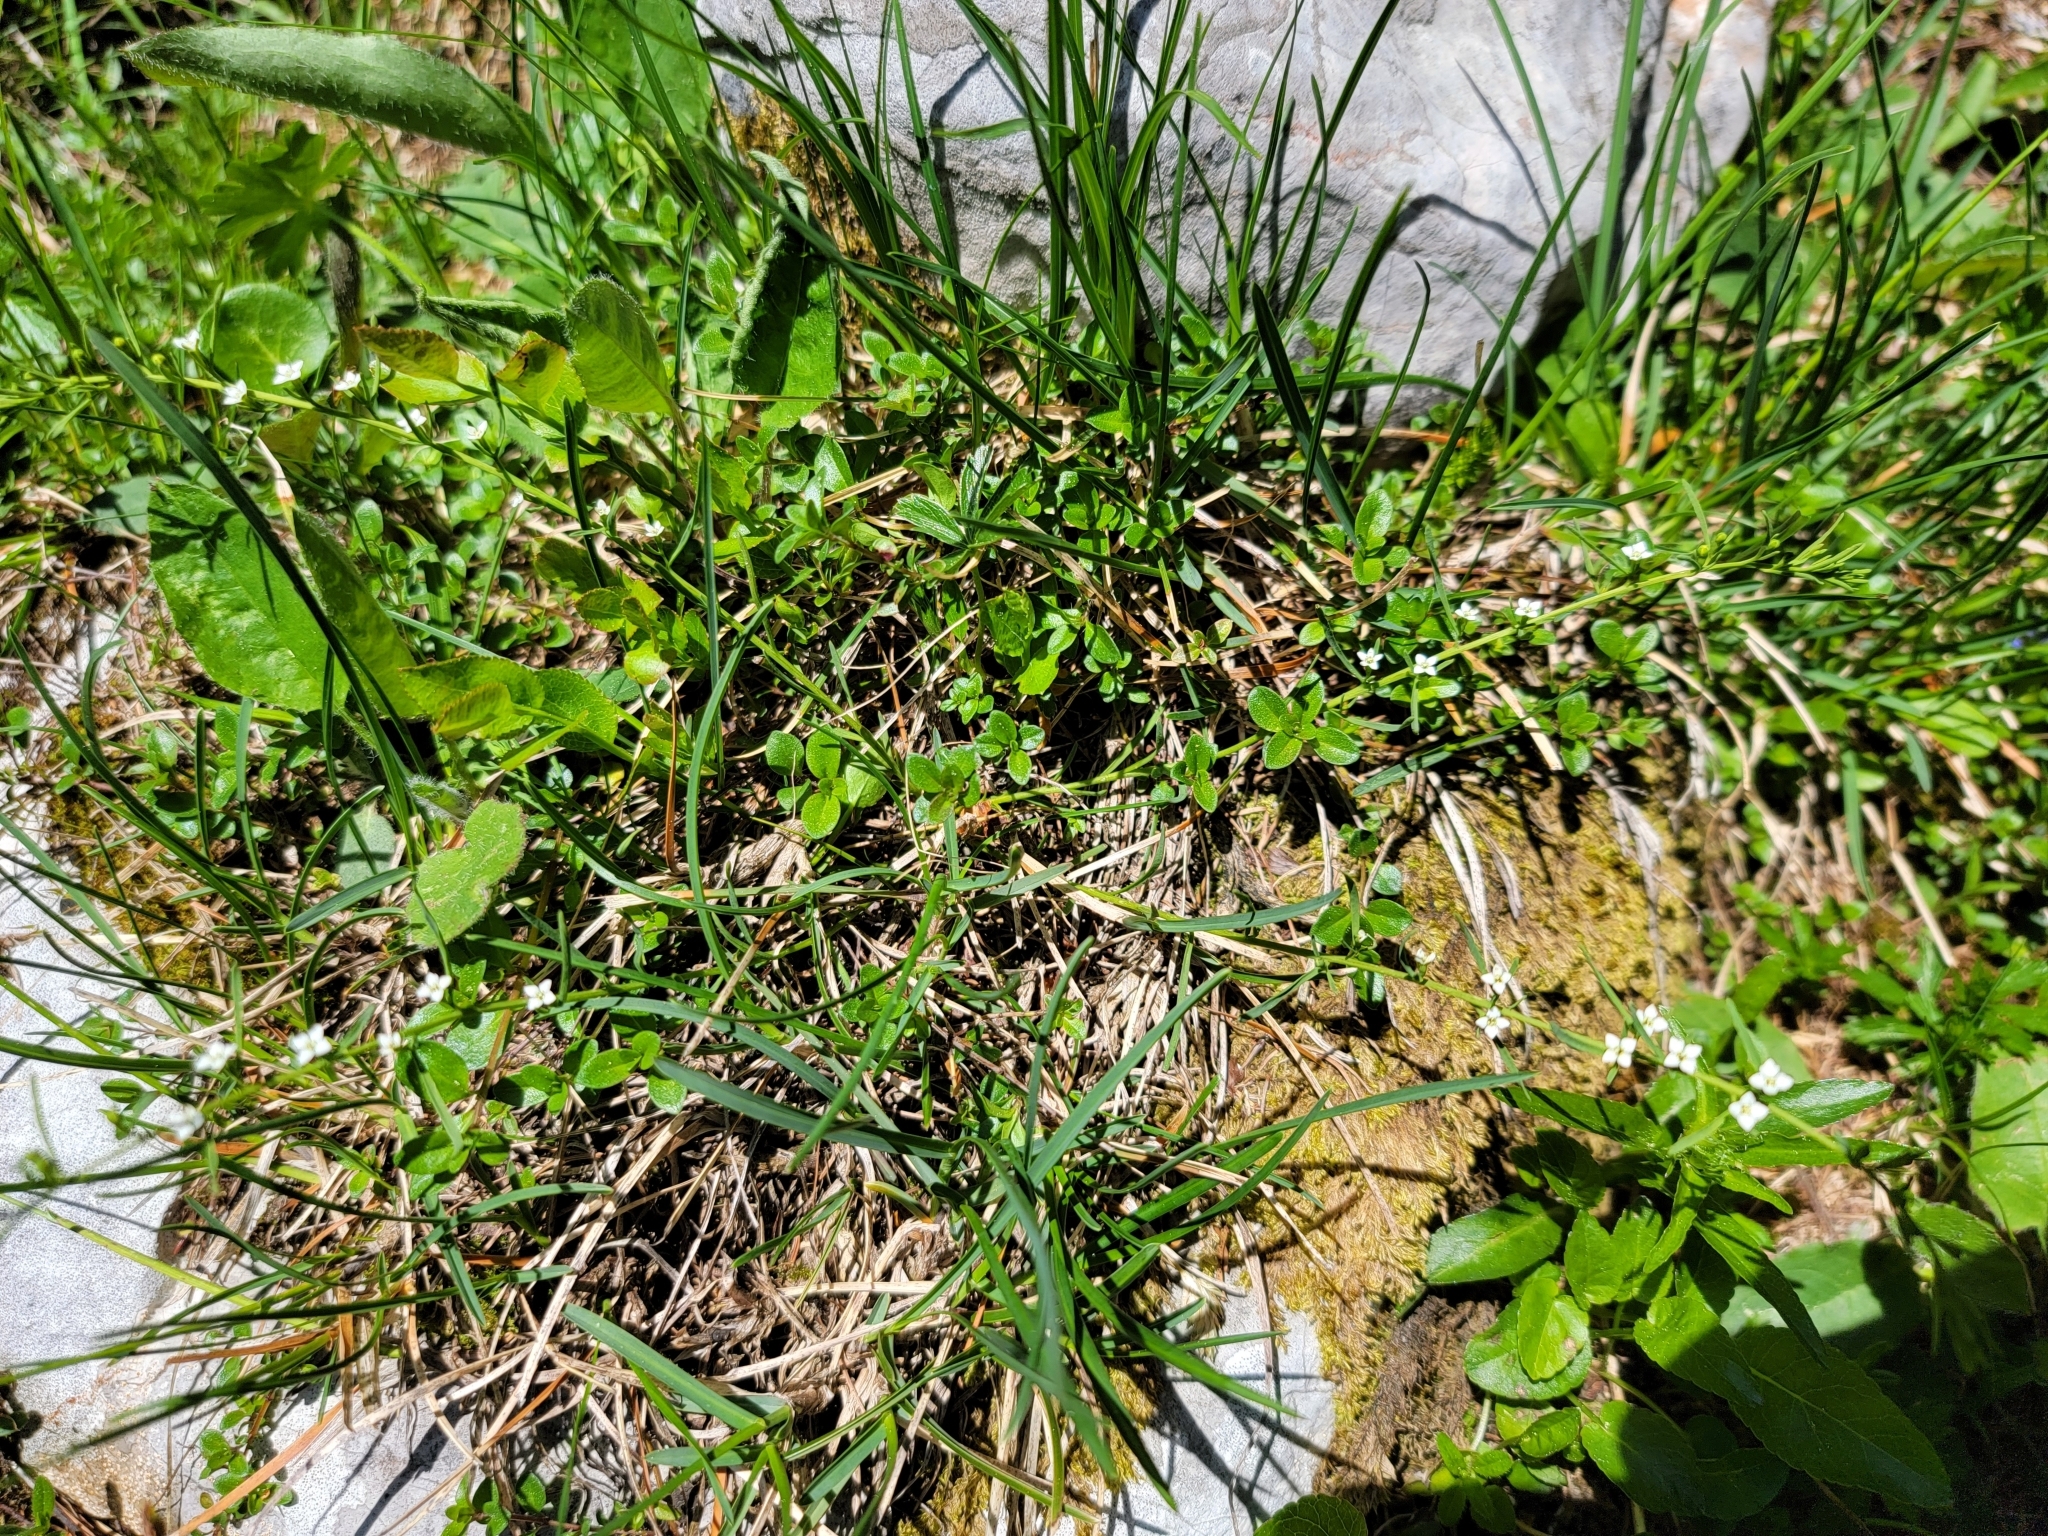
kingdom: Plantae
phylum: Tracheophyta
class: Magnoliopsida
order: Santalales
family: Thesiaceae
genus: Thesium
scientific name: Thesium alpinum
